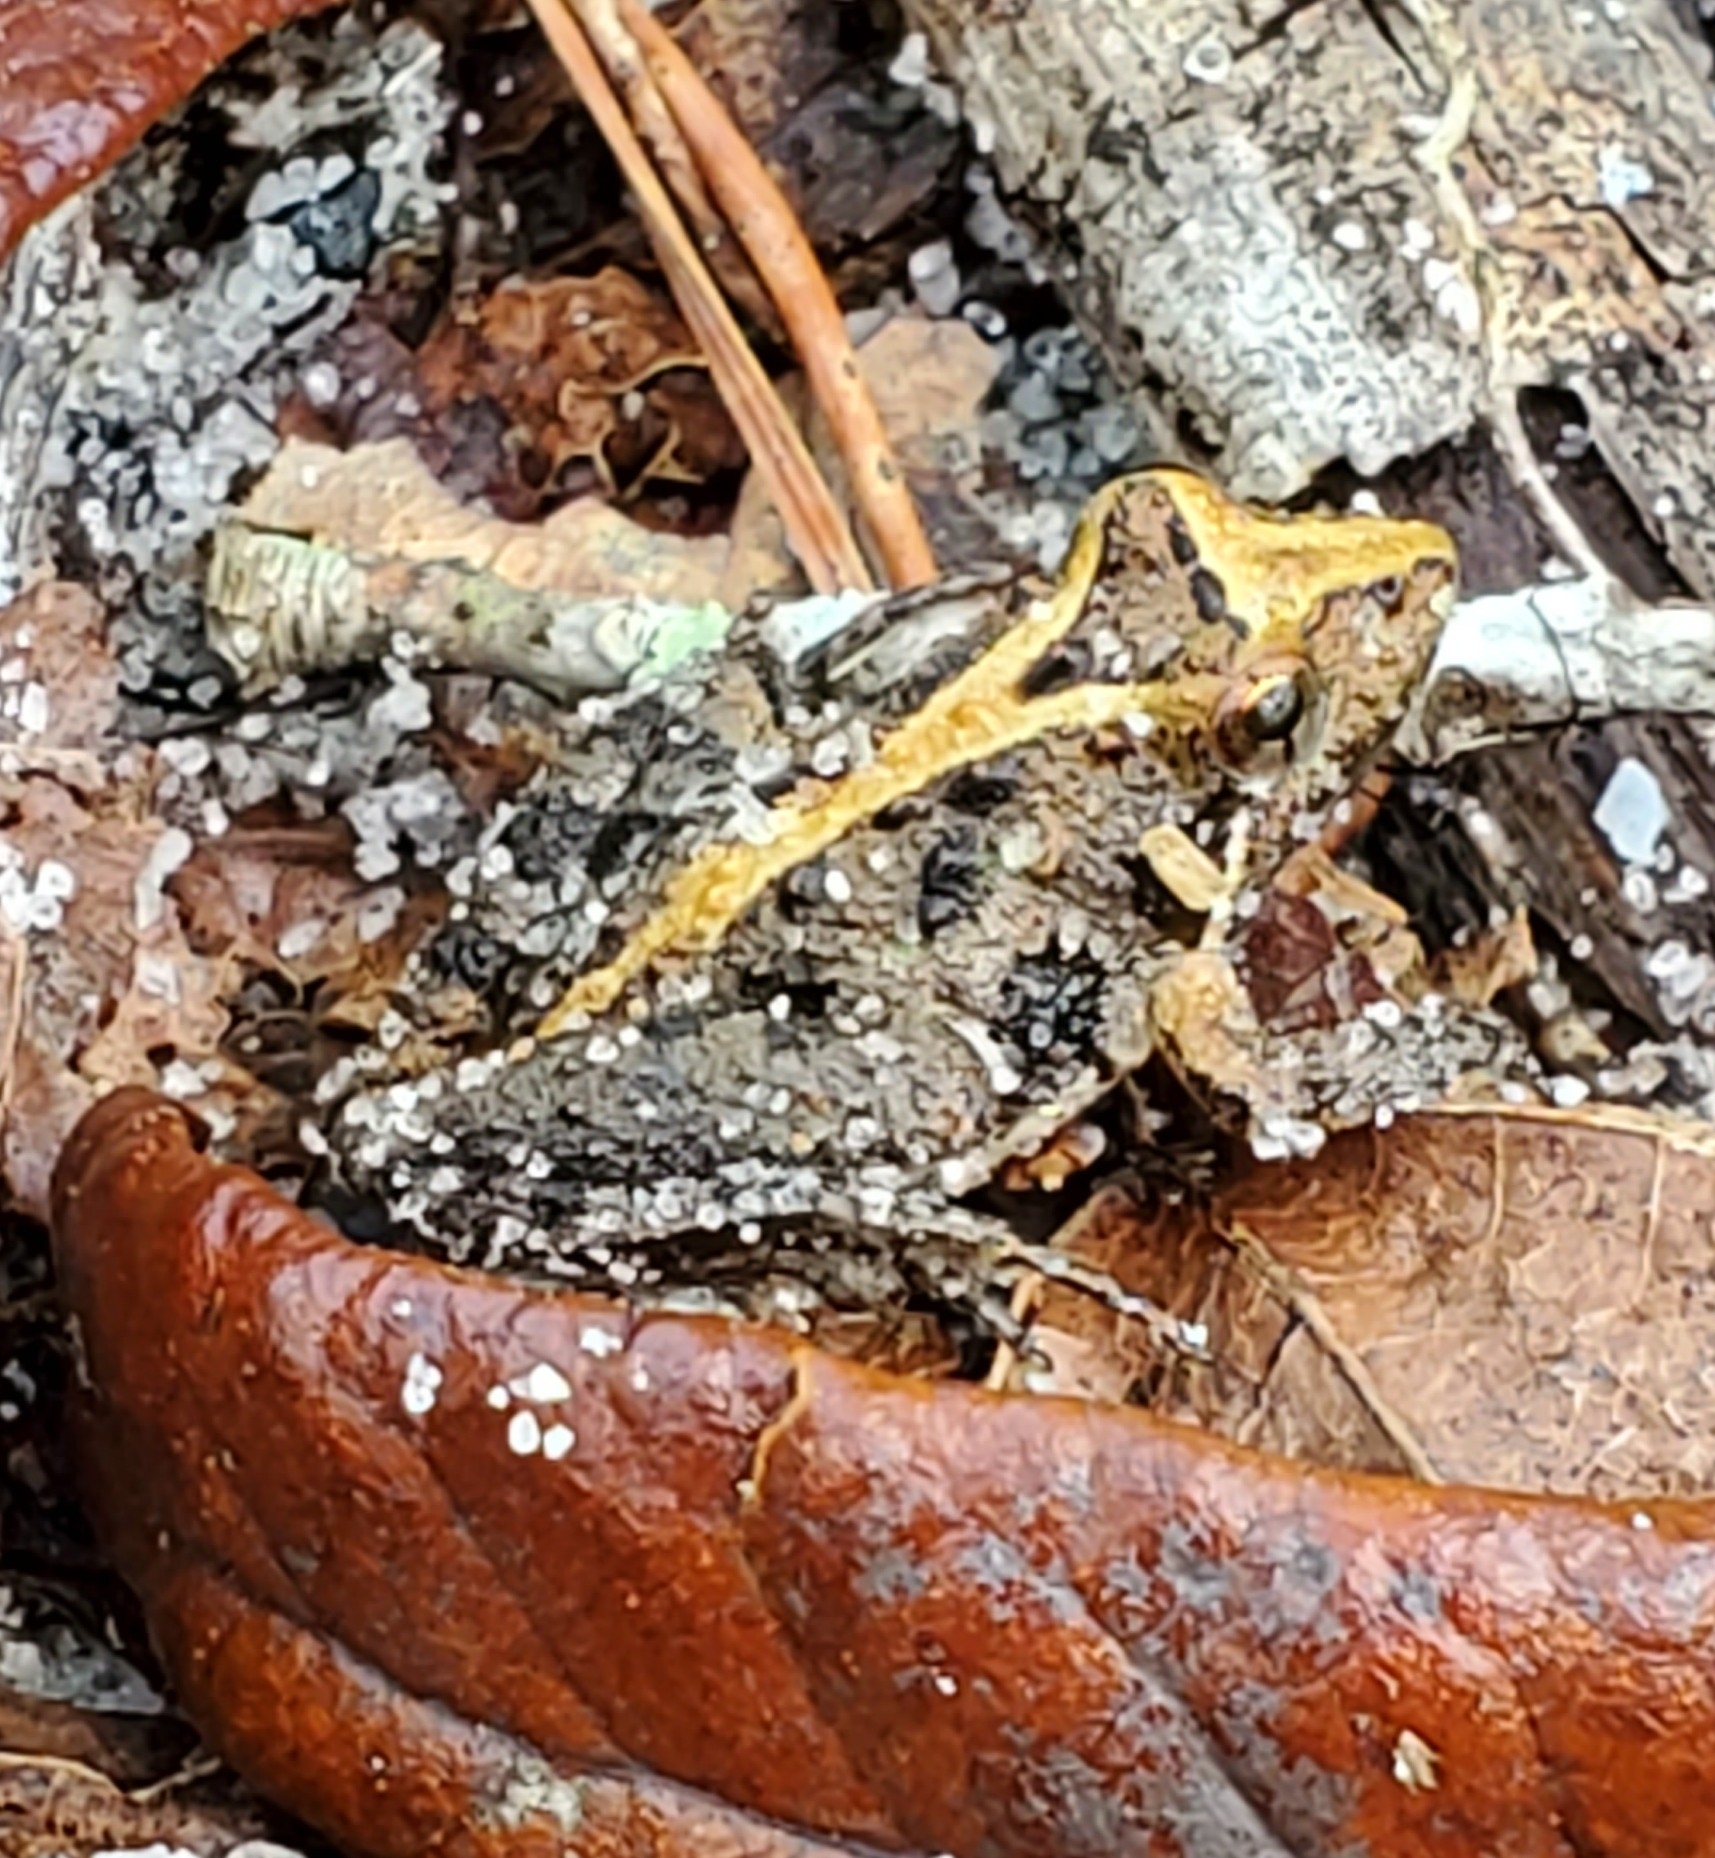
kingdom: Animalia
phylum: Chordata
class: Amphibia
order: Anura
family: Hylidae
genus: Acris
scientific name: Acris gryllus
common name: Southern cricket frog
